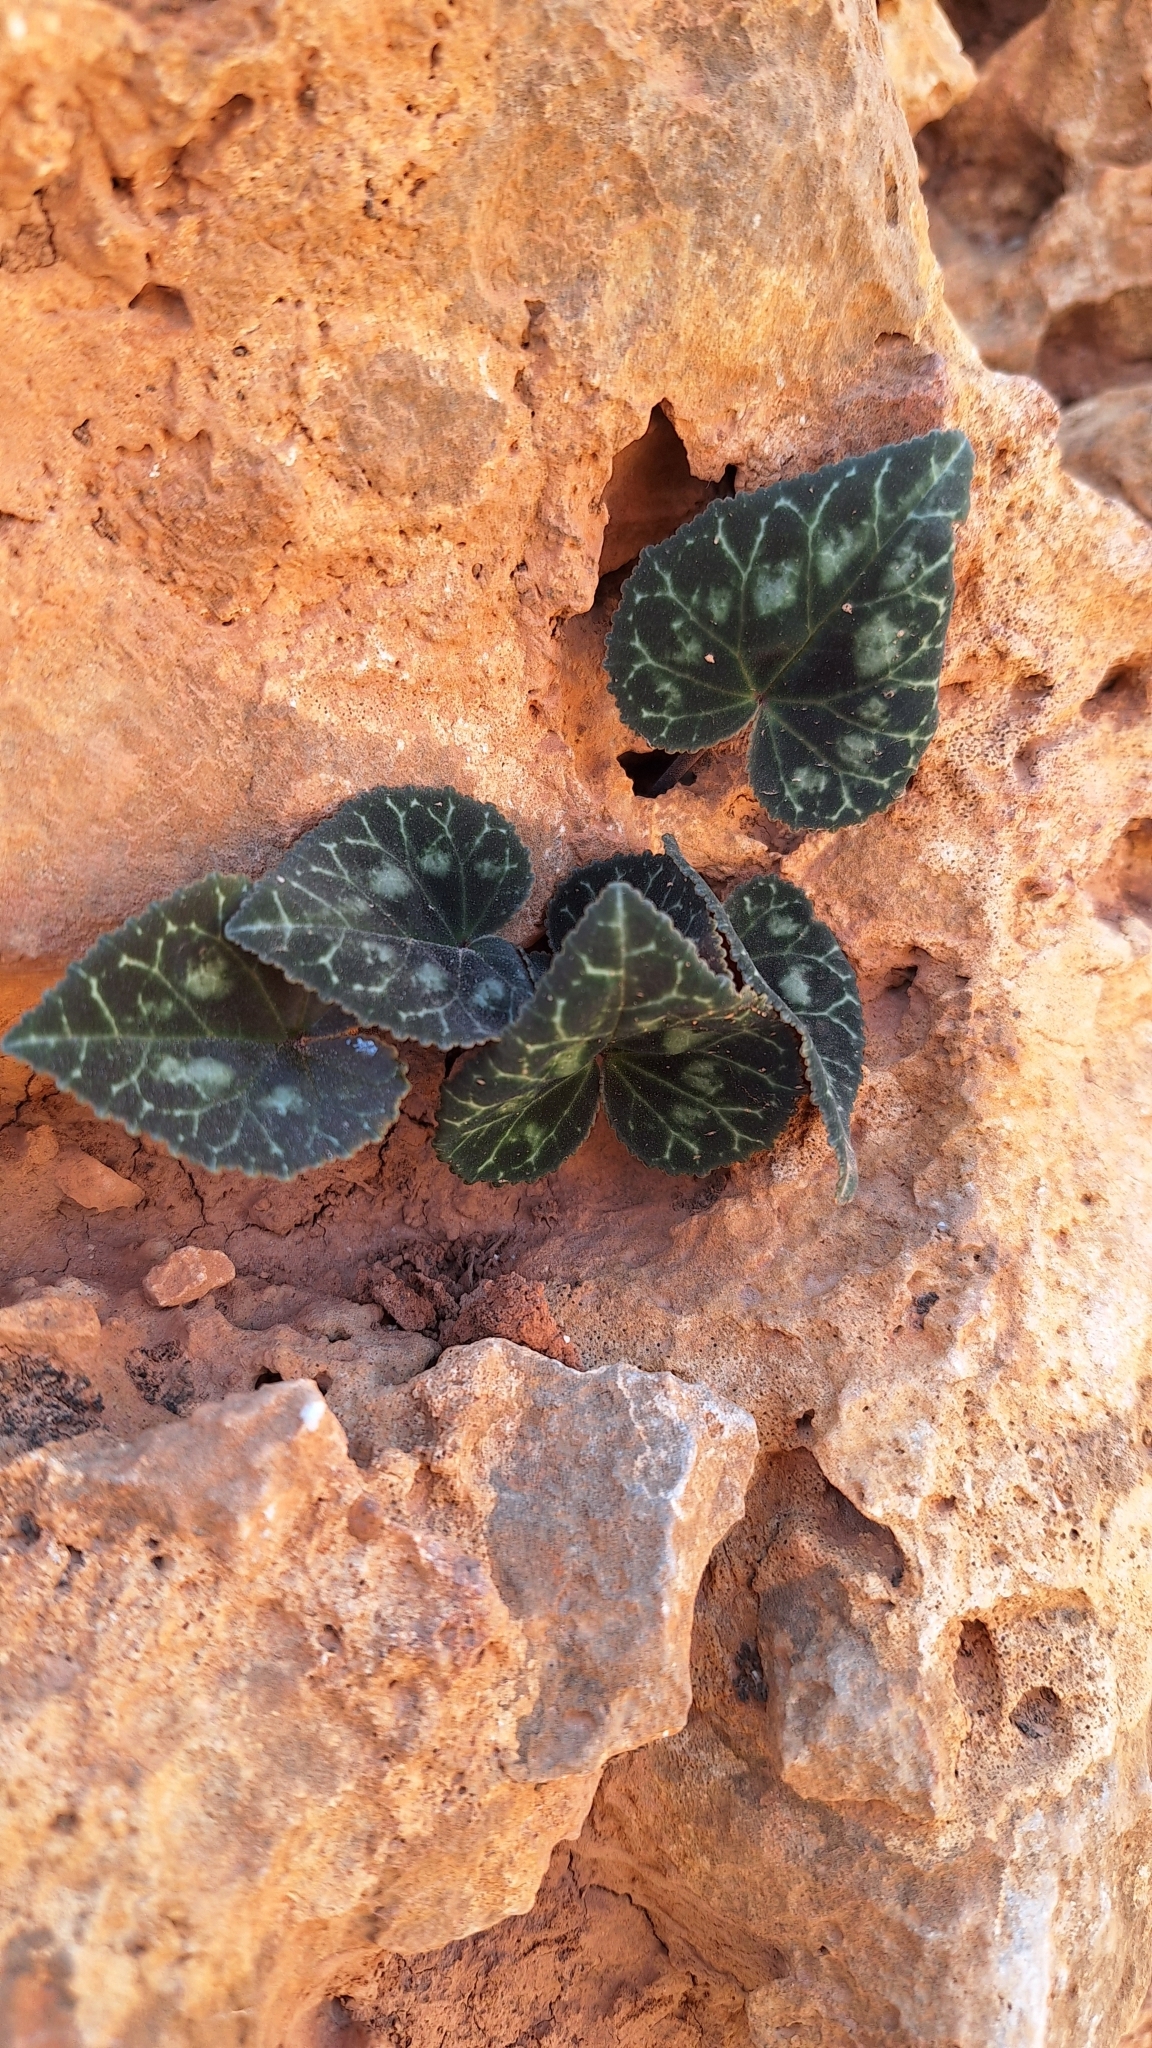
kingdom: Plantae
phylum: Tracheophyta
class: Magnoliopsida
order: Ericales
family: Primulaceae
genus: Cyclamen
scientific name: Cyclamen graecum
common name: Greek cyclamen
